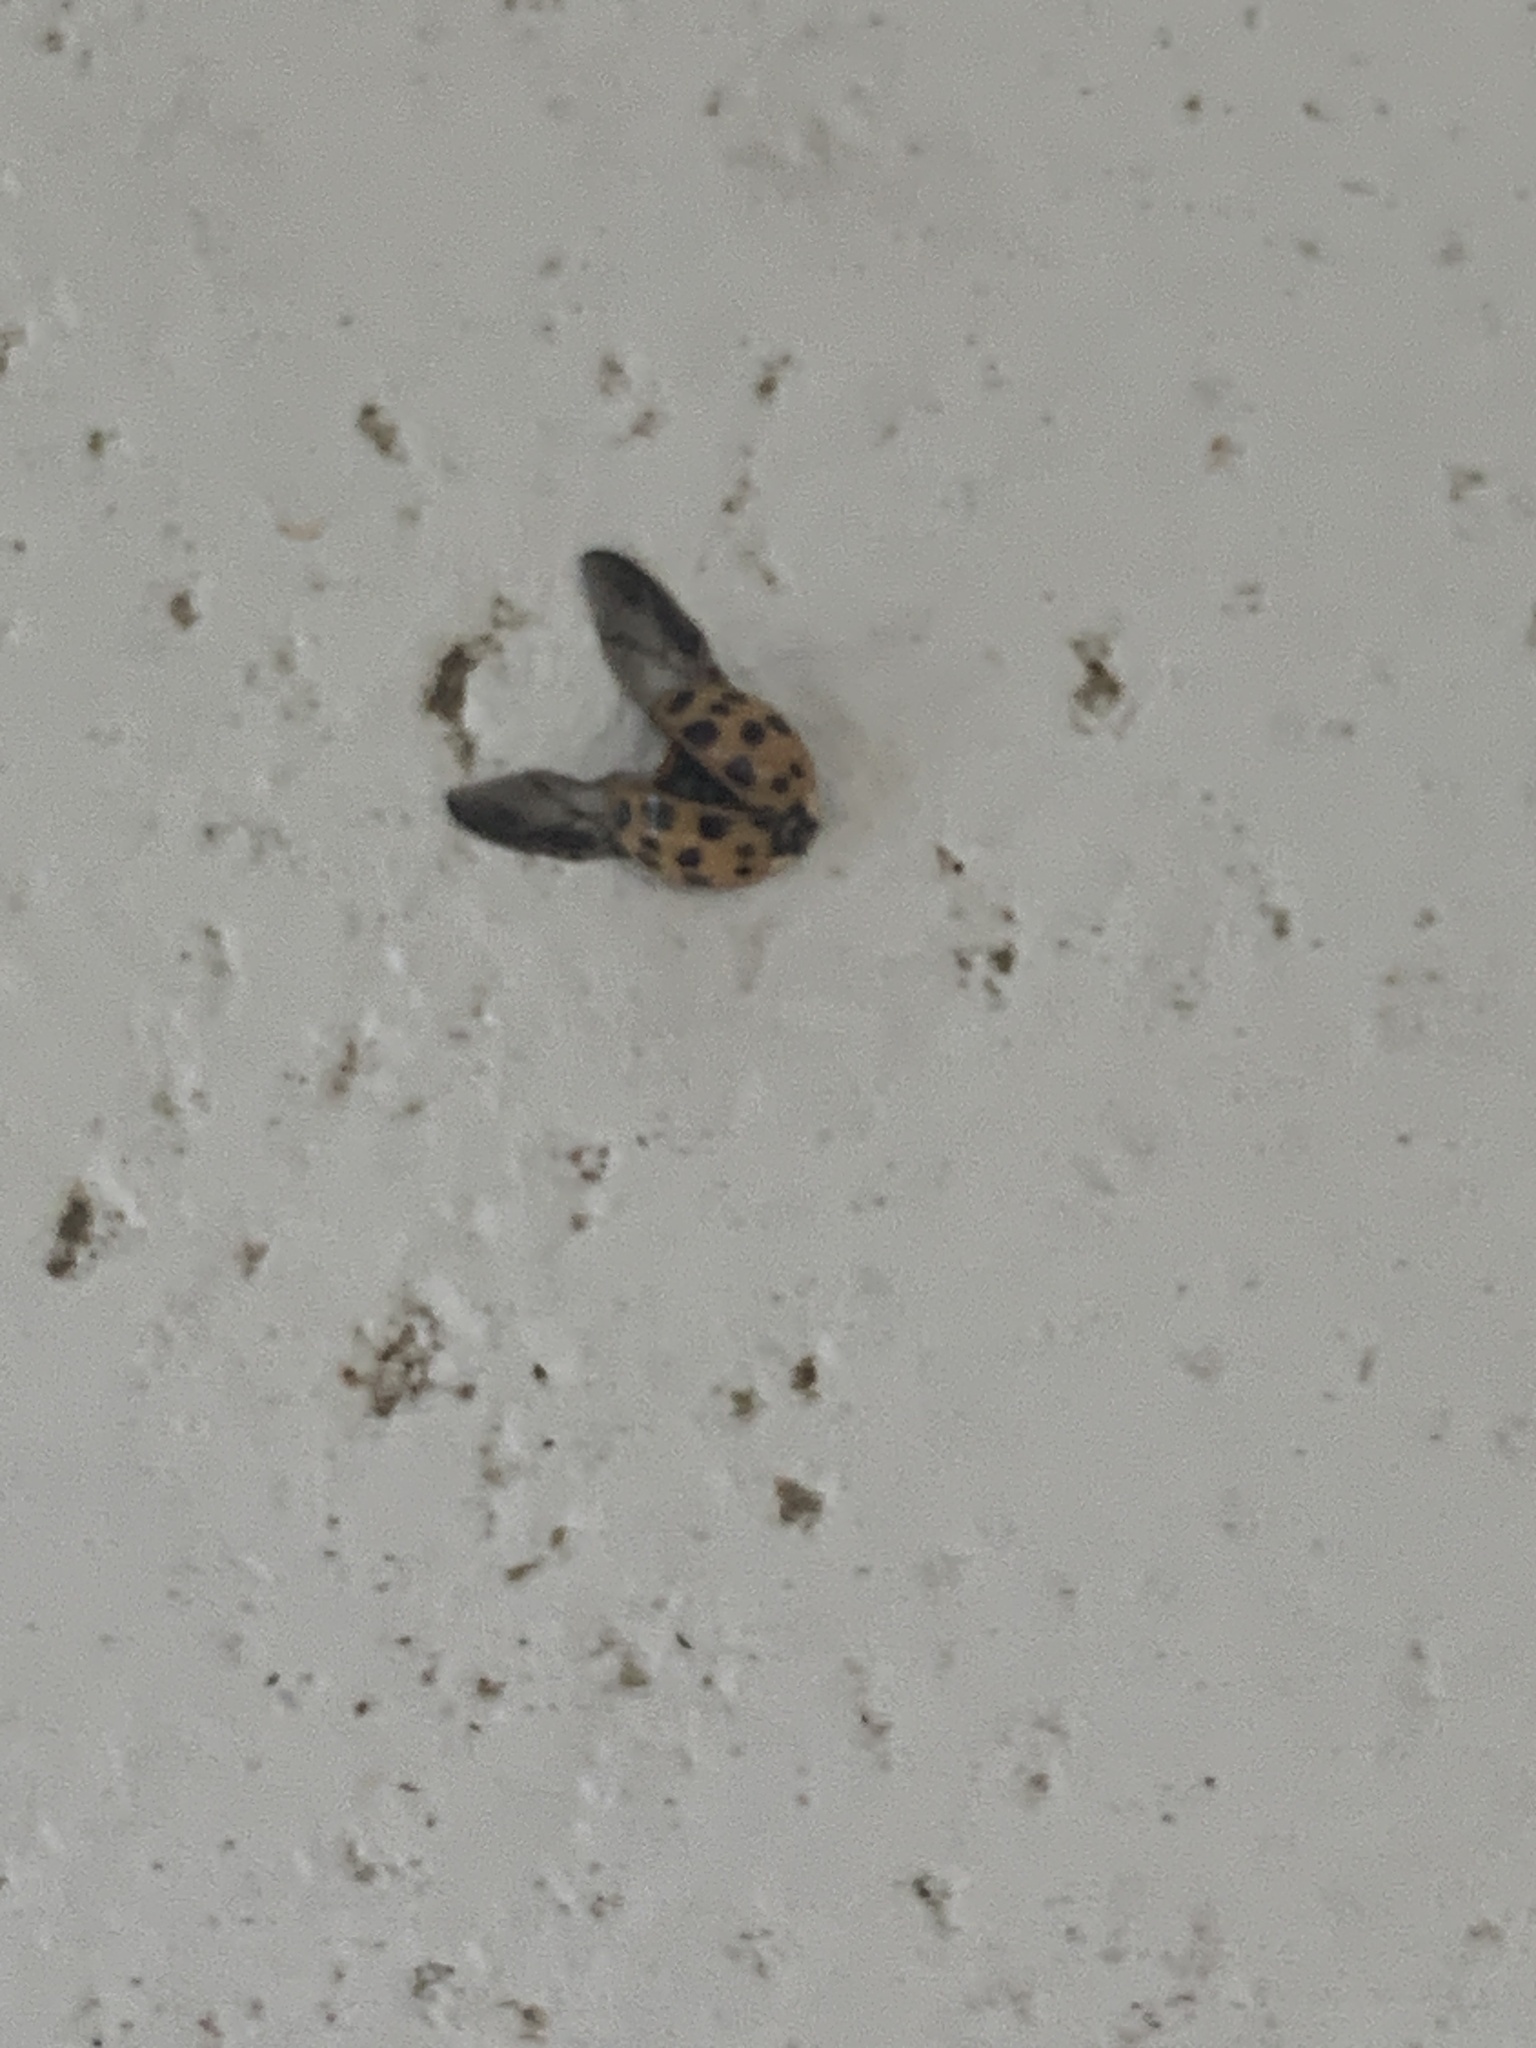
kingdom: Animalia
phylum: Arthropoda
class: Insecta
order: Coleoptera
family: Coccinellidae
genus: Harmonia
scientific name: Harmonia axyridis
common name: Harlequin ladybird
